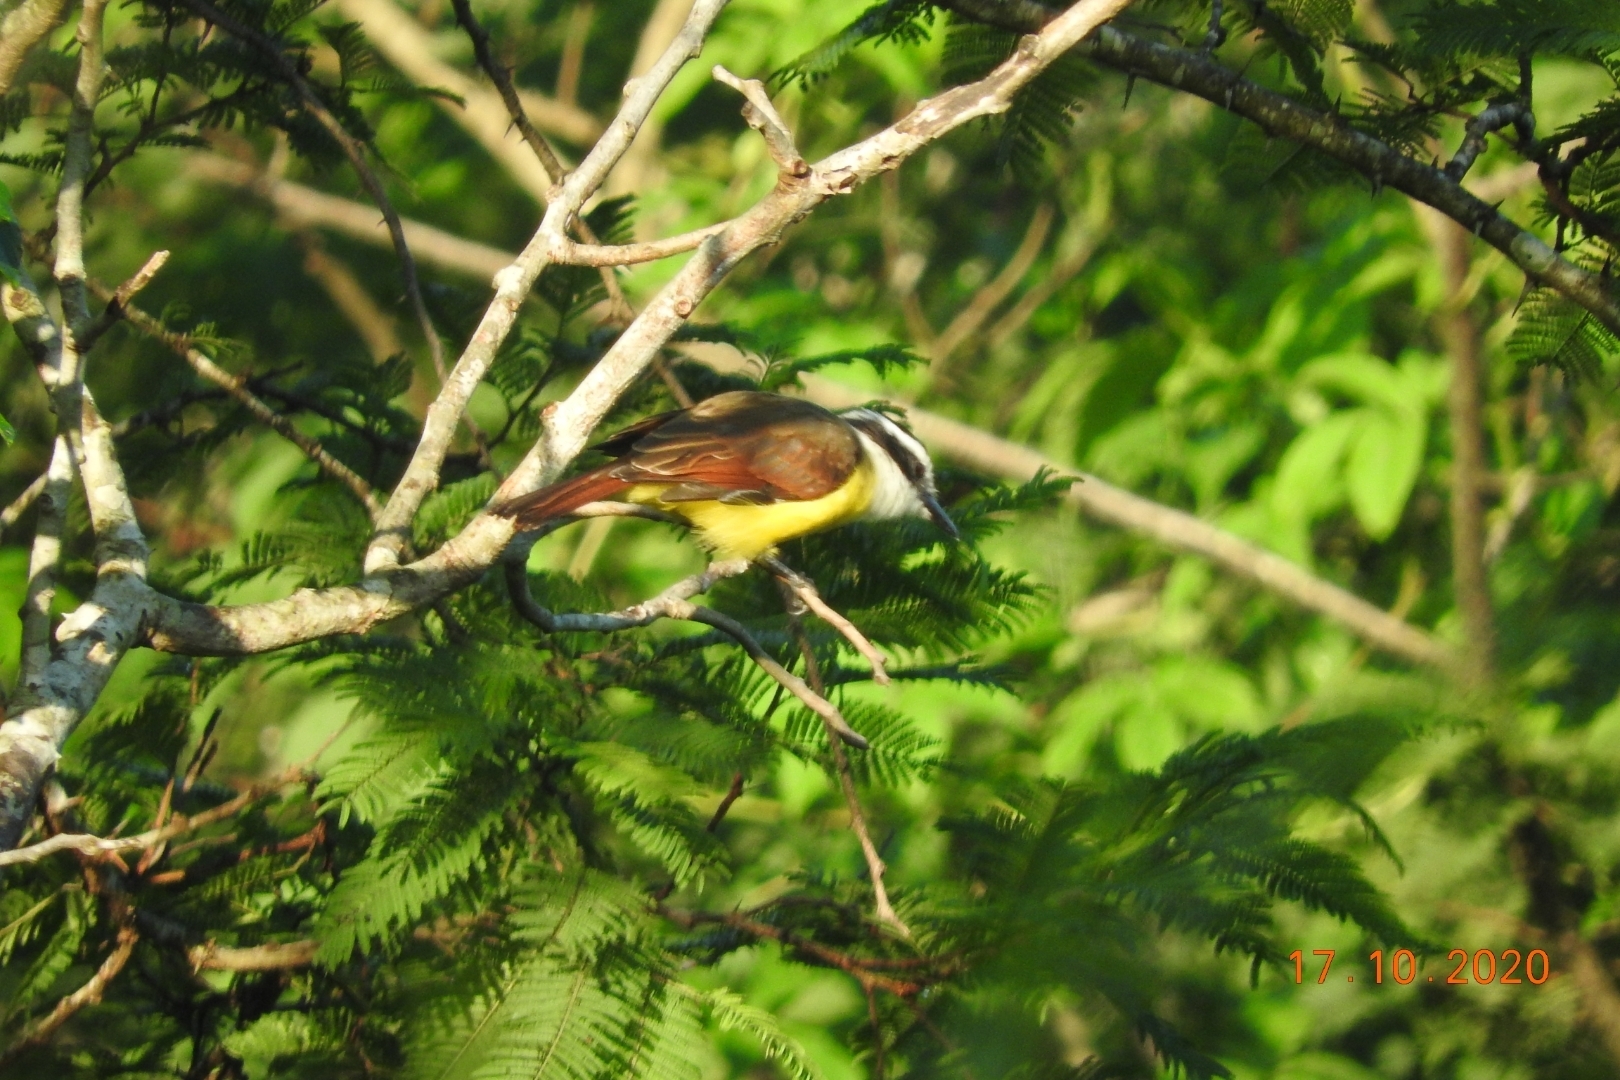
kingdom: Animalia
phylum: Chordata
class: Aves
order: Passeriformes
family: Tyrannidae
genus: Pitangus
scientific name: Pitangus sulphuratus
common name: Great kiskadee
